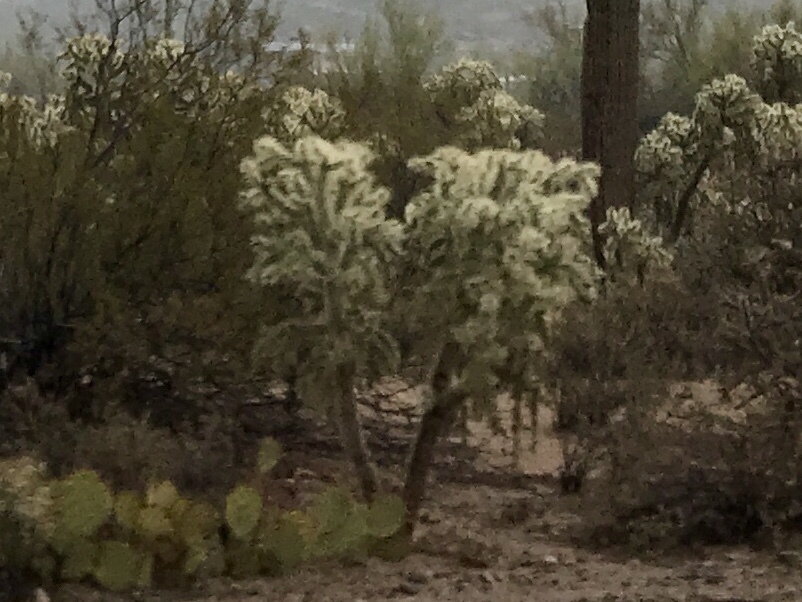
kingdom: Plantae
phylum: Tracheophyta
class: Magnoliopsida
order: Caryophyllales
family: Cactaceae
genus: Cylindropuntia
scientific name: Cylindropuntia fulgida
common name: Jumping cholla
